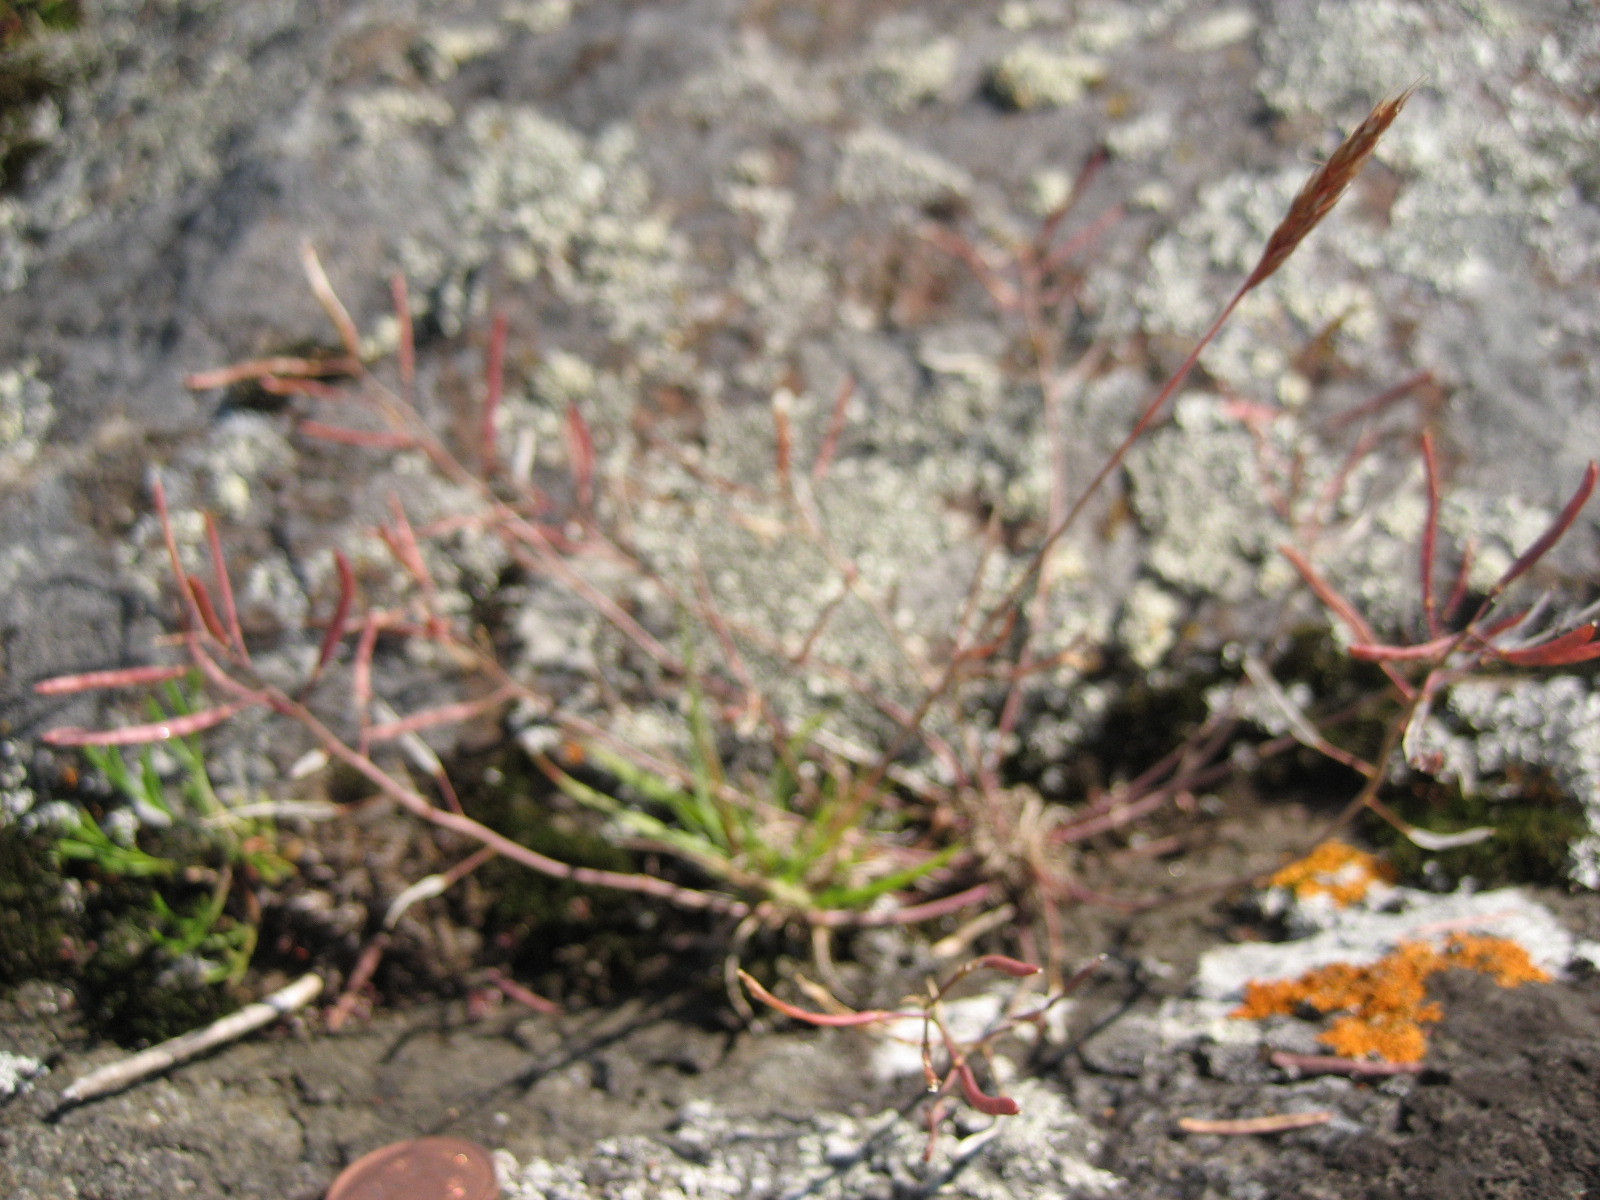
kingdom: Plantae
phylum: Tracheophyta
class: Liliopsida
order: Poales
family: Poaceae
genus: Koeleria
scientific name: Koeleria spicata
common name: Mountain trisetum
